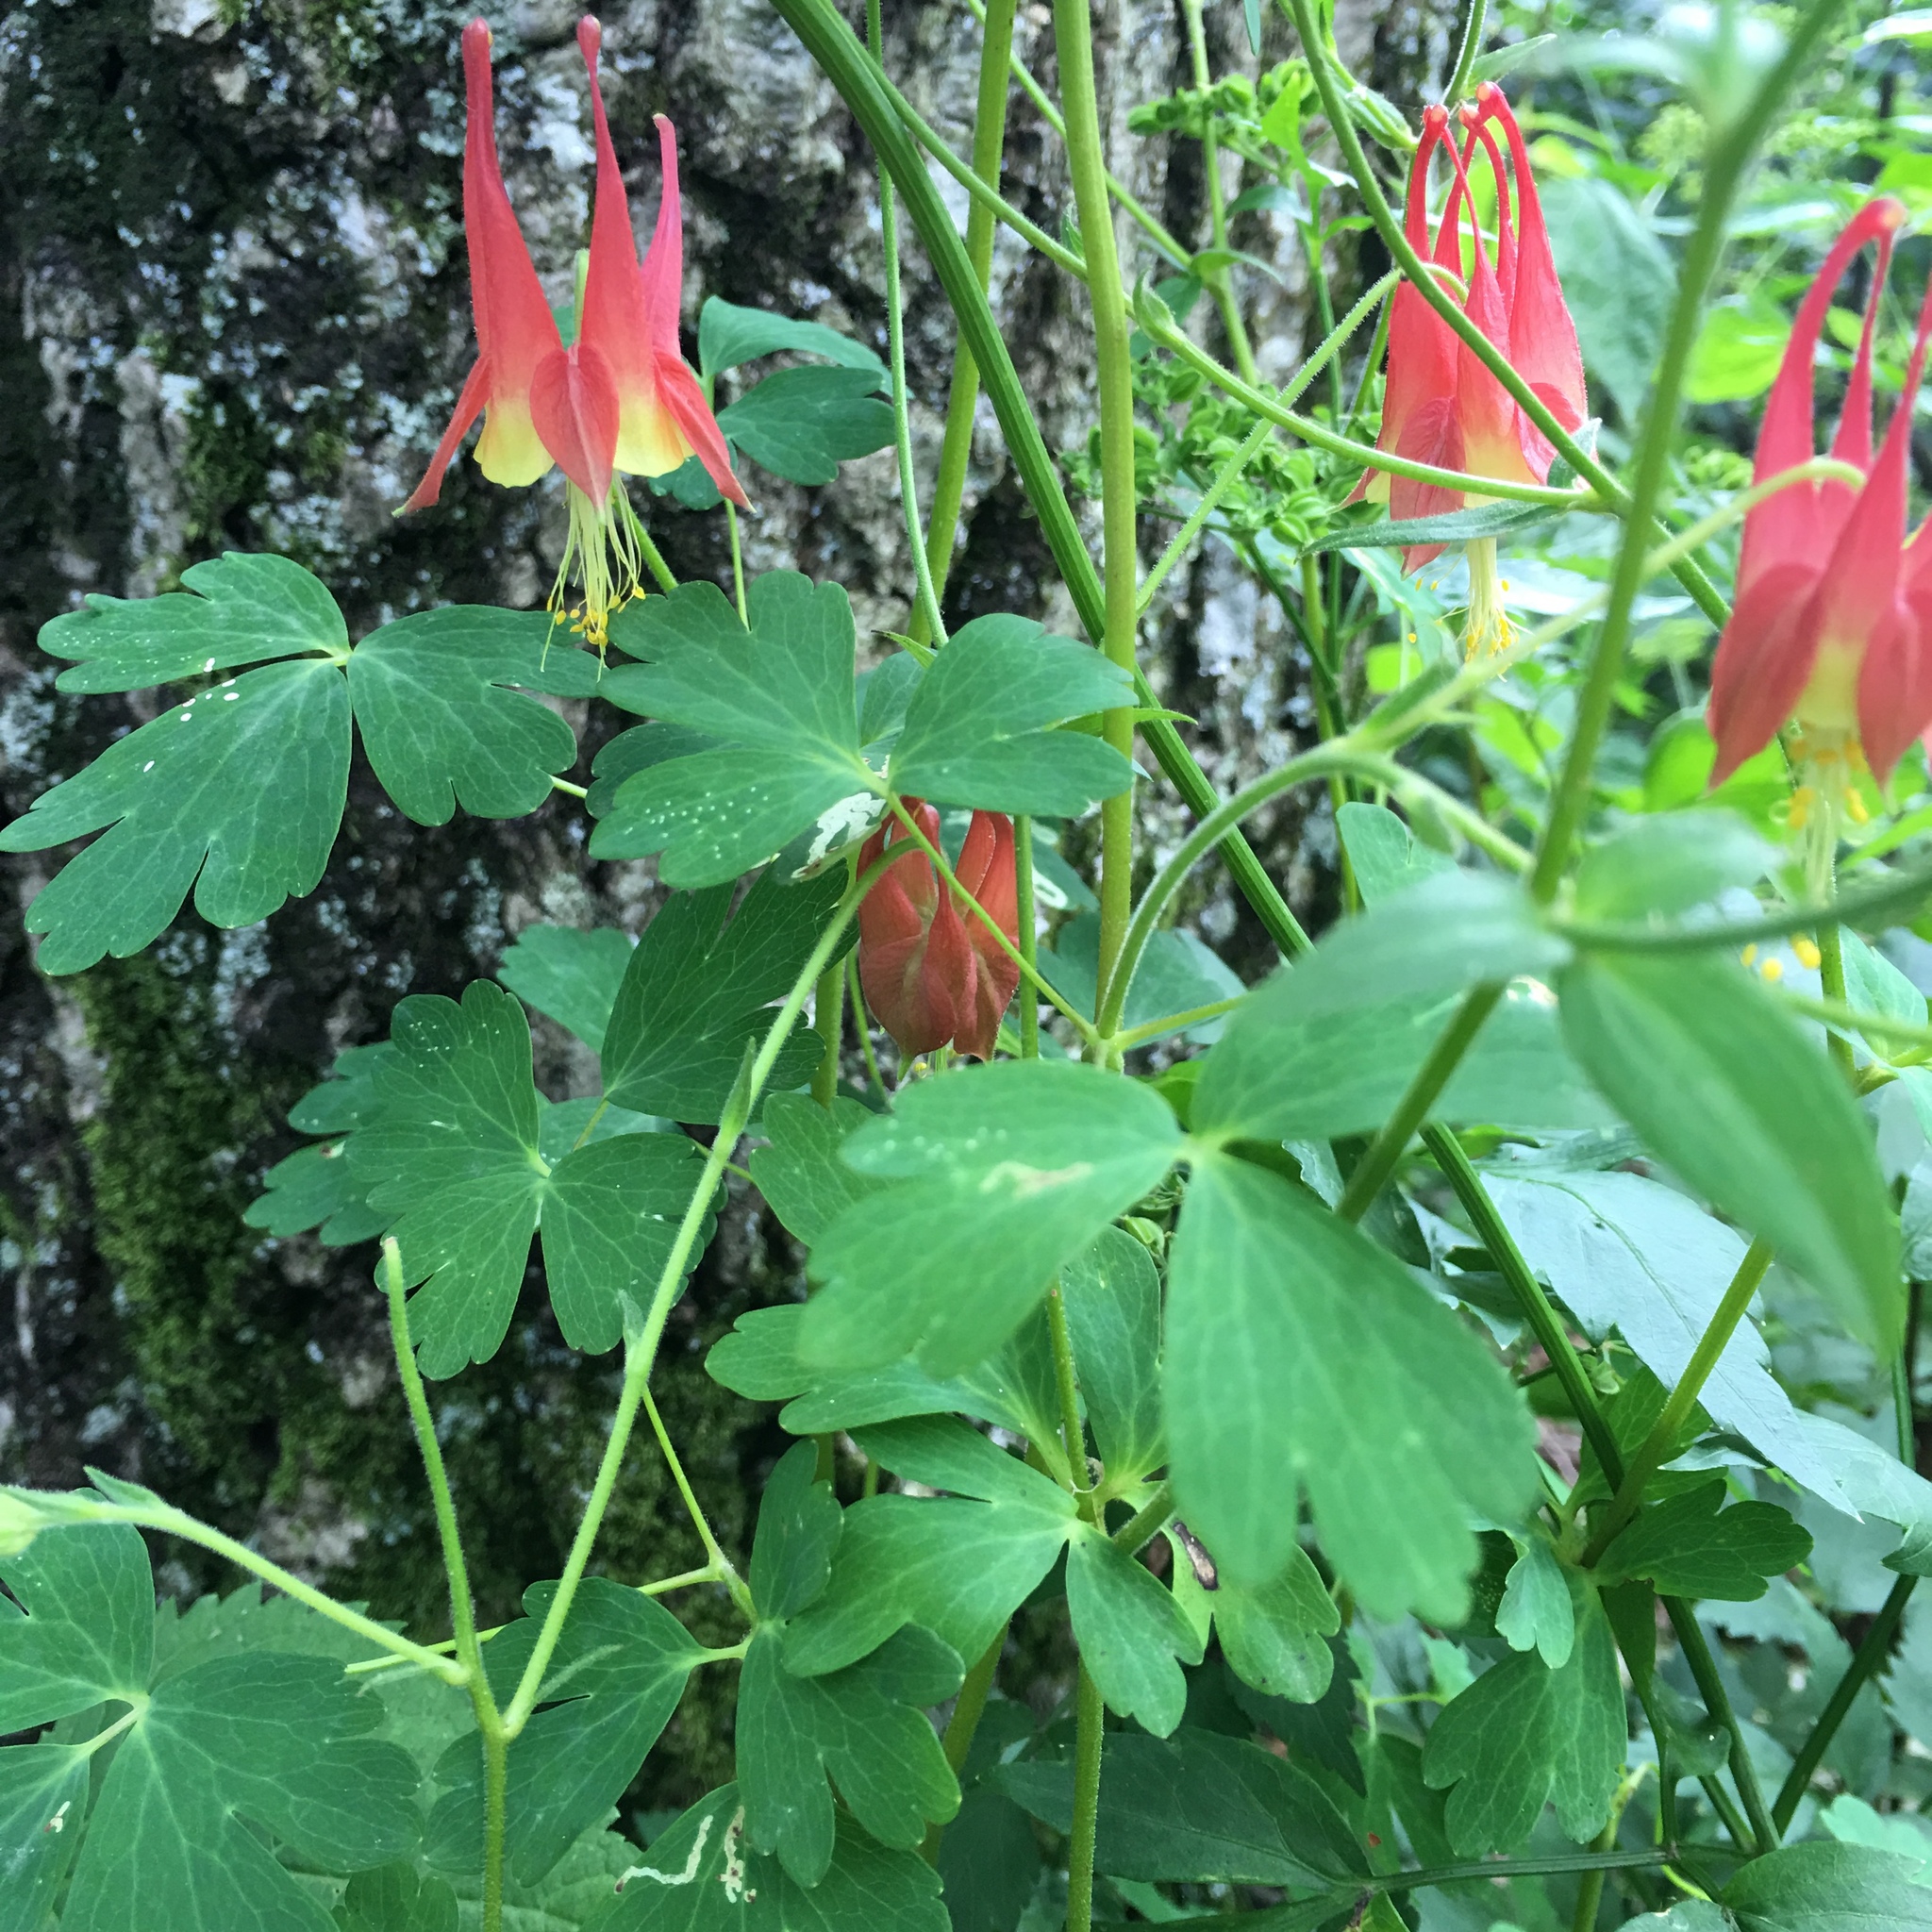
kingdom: Plantae
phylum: Tracheophyta
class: Magnoliopsida
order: Ranunculales
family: Ranunculaceae
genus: Aquilegia
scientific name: Aquilegia canadensis
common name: American columbine
